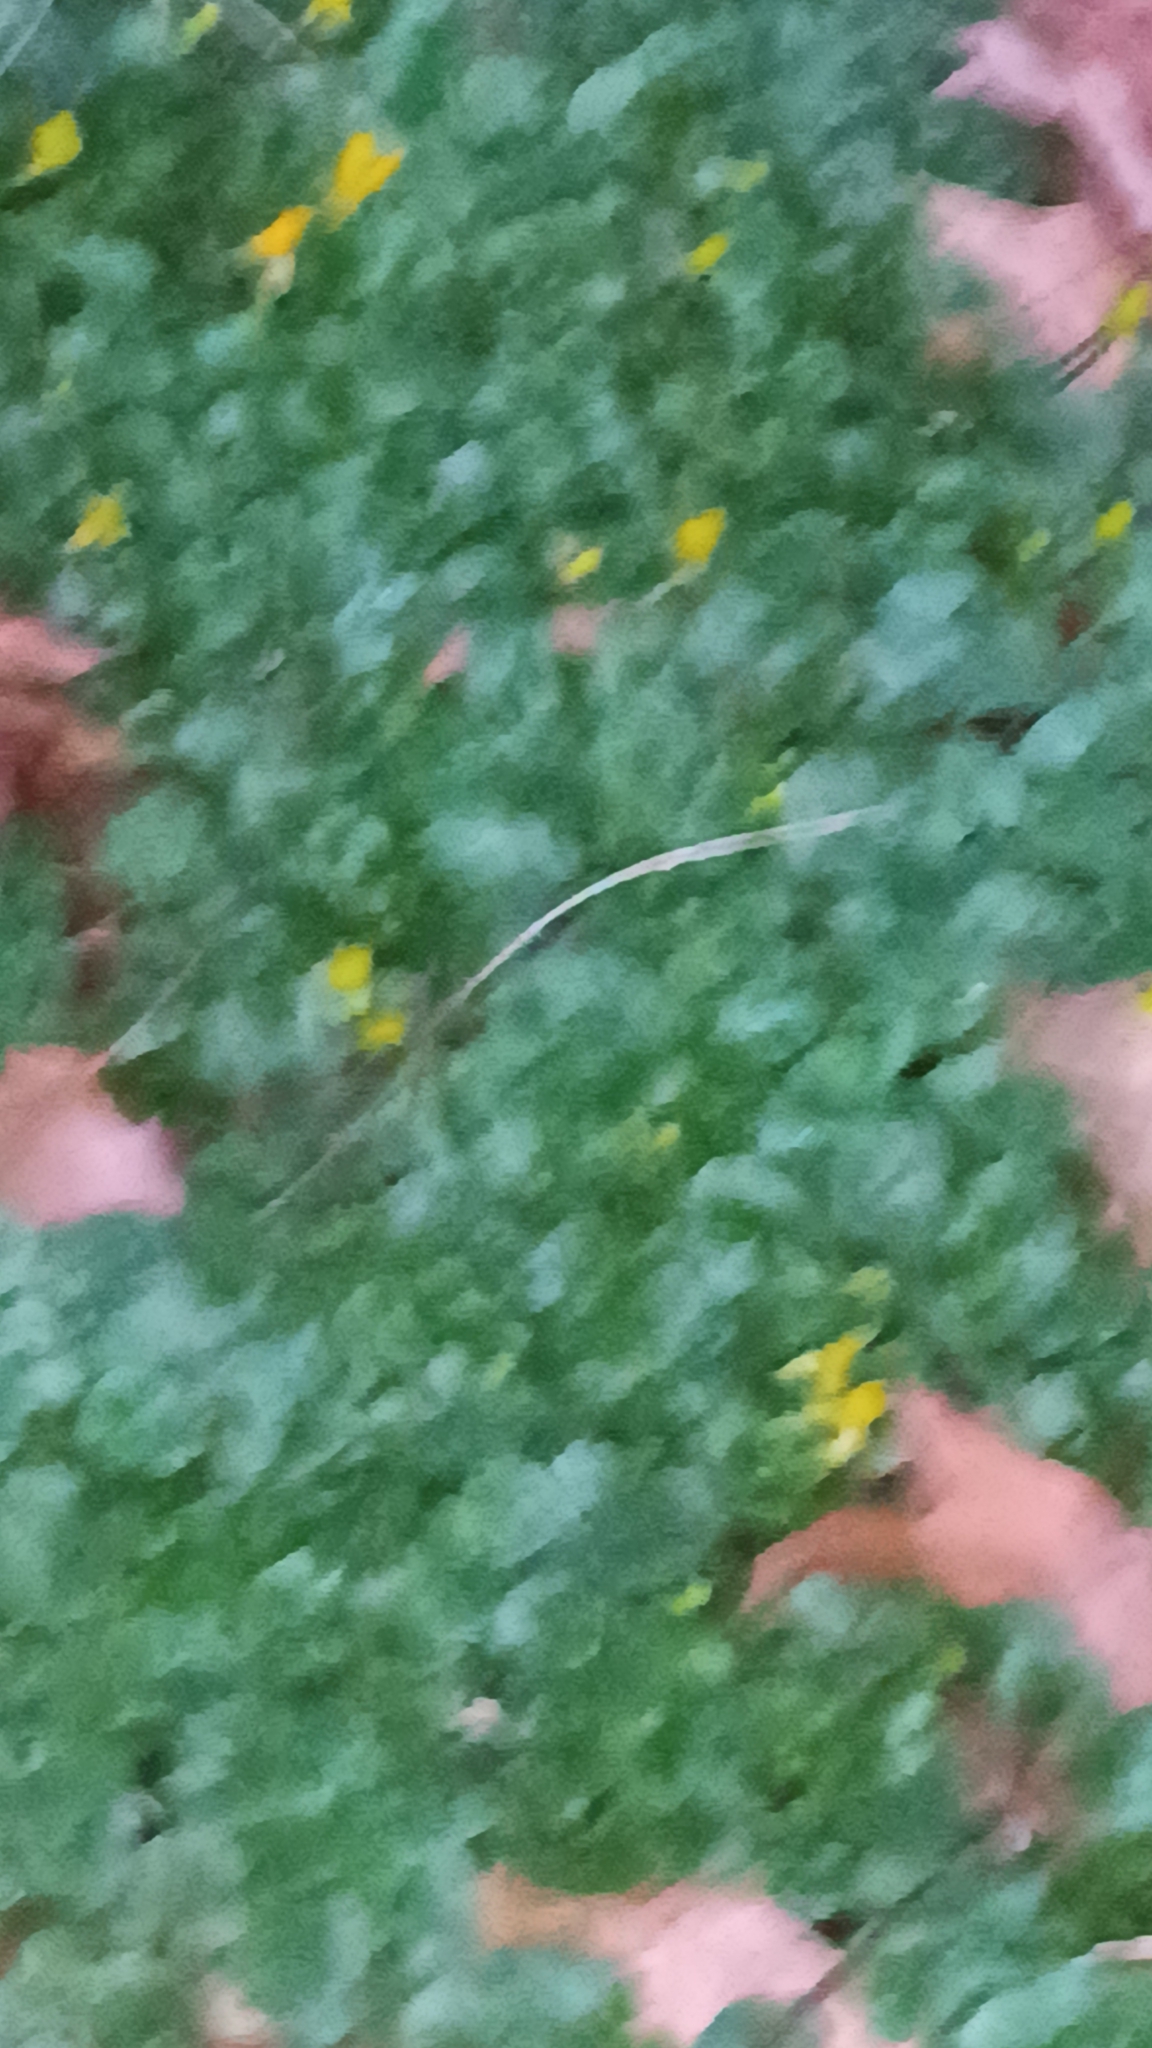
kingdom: Plantae
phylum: Tracheophyta
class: Magnoliopsida
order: Ranunculales
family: Ranunculaceae
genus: Ficaria
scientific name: Ficaria verna
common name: Lesser celandine
